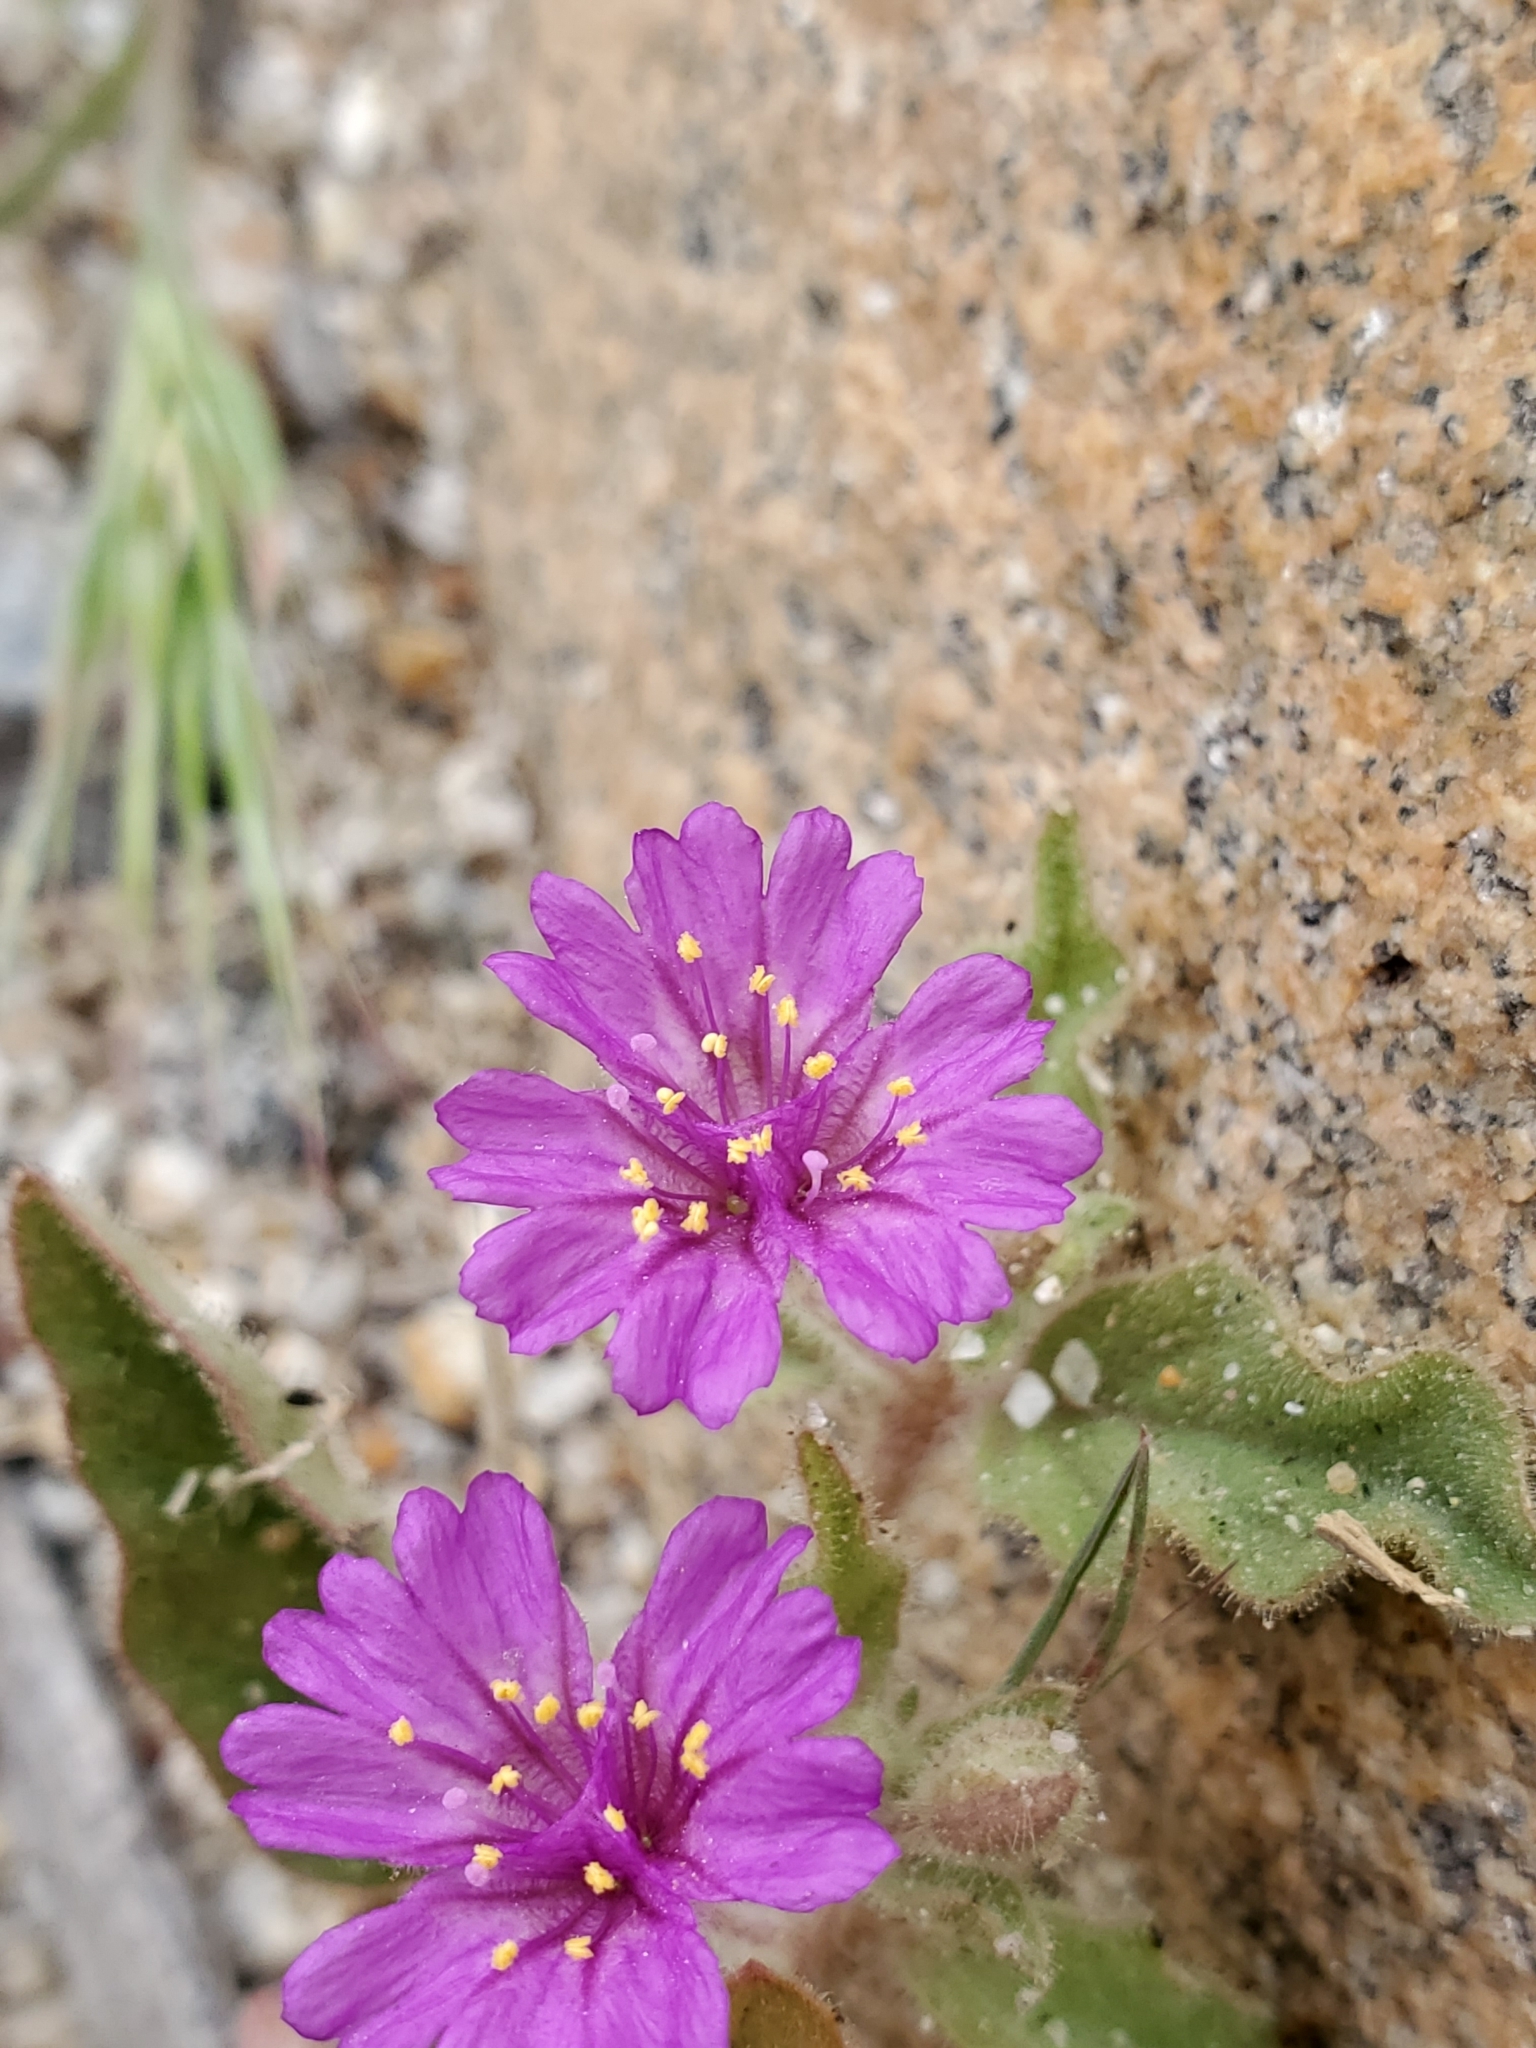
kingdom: Plantae
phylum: Tracheophyta
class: Magnoliopsida
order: Caryophyllales
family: Nyctaginaceae
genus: Allionia
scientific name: Allionia incarnata
